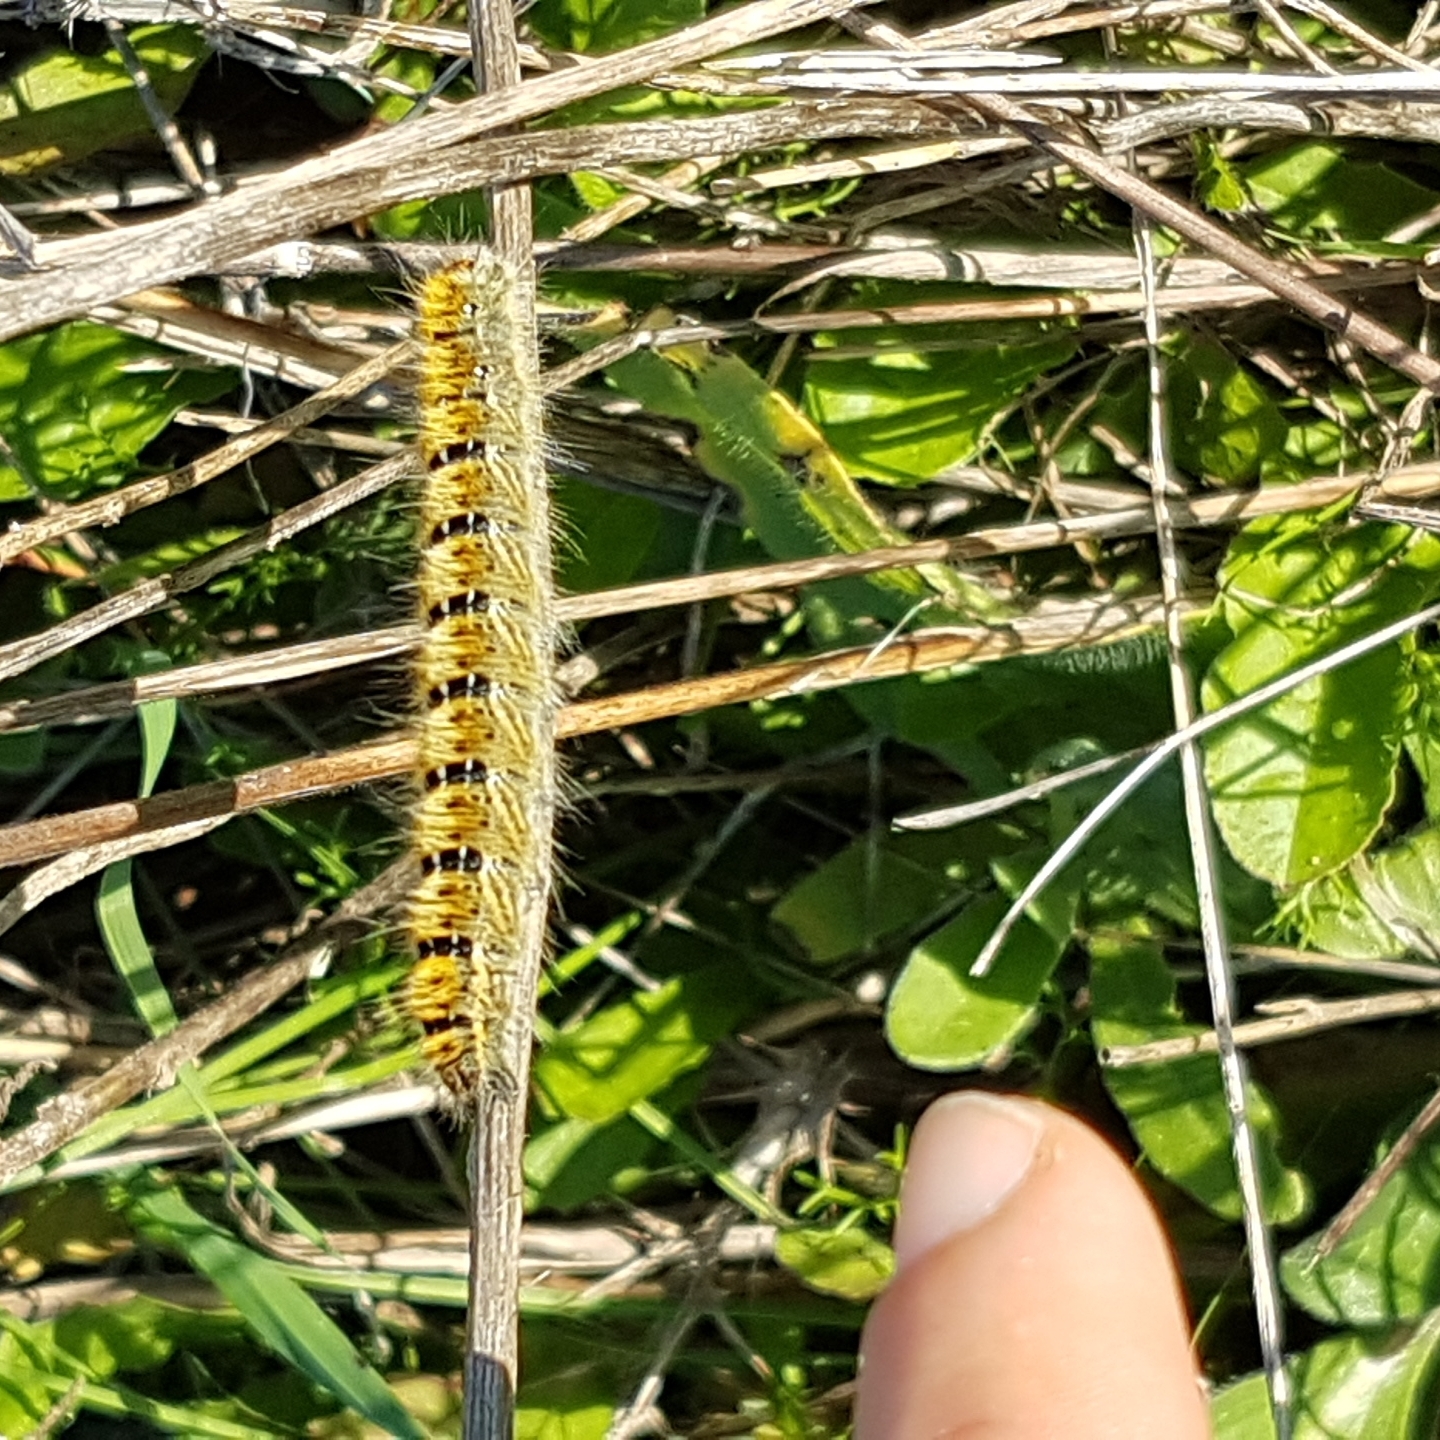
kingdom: Animalia
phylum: Arthropoda
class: Insecta
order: Lepidoptera
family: Lasiocampidae
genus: Lasiocampa
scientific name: Lasiocampa trifolii
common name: Grass eggar
